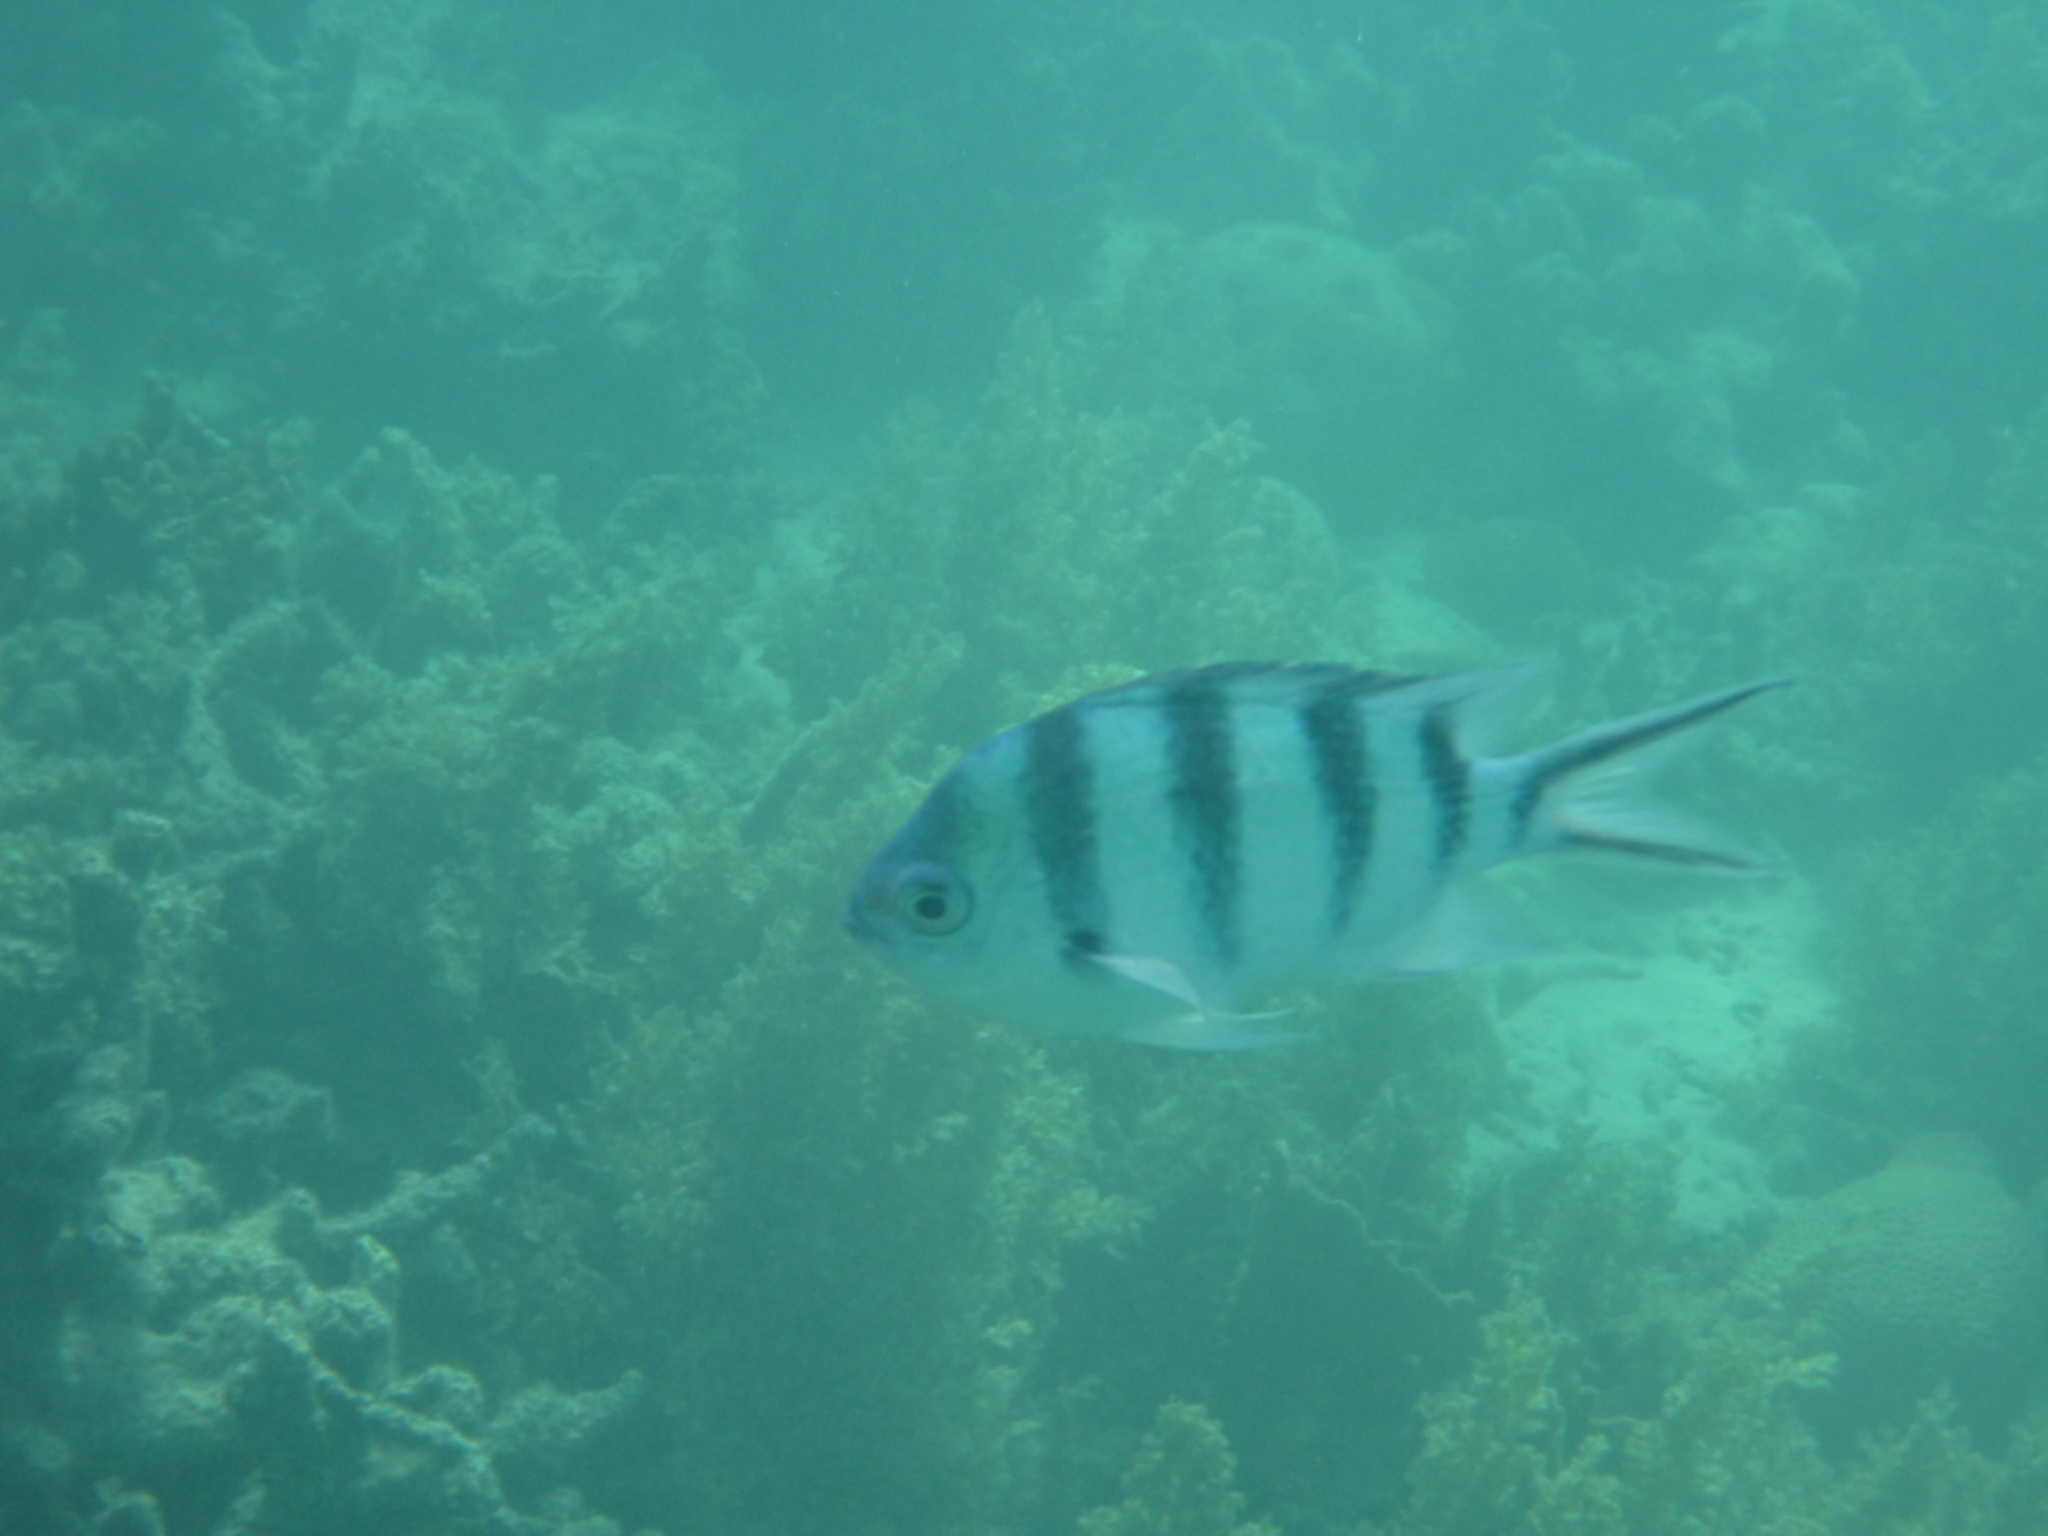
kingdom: Animalia
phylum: Chordata
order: Perciformes
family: Pomacentridae
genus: Abudefduf
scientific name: Abudefduf sexfasciatus
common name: Scissortail sergeant
